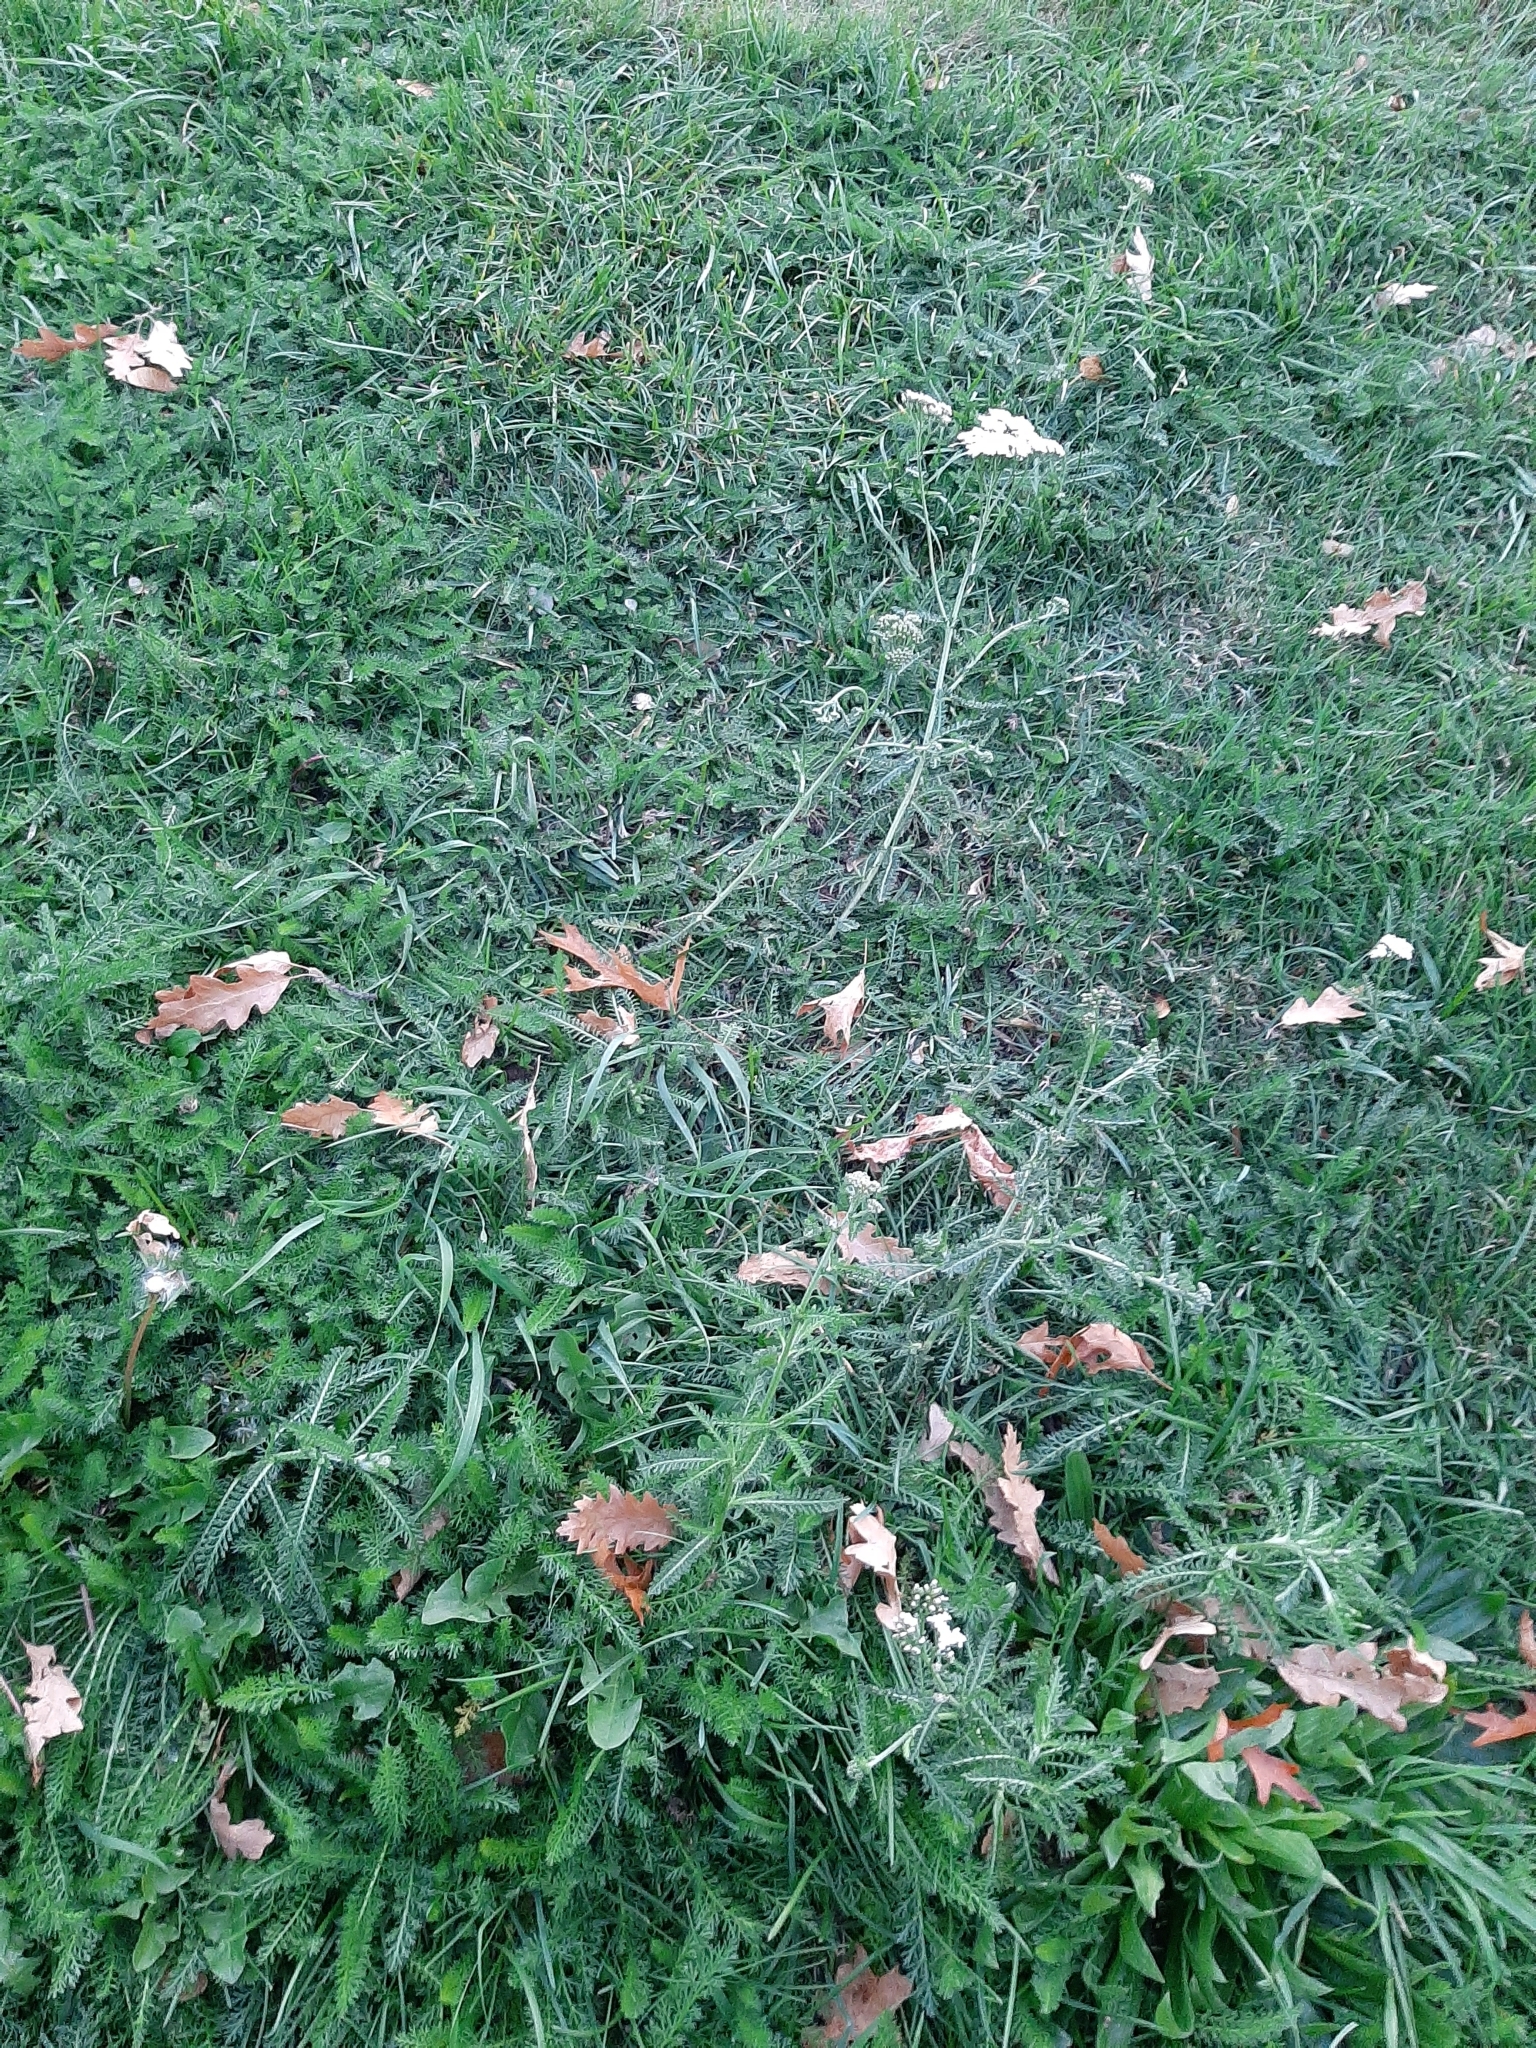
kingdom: Plantae
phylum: Tracheophyta
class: Magnoliopsida
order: Asterales
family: Asteraceae
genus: Achillea
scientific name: Achillea millefolium
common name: Yarrow
